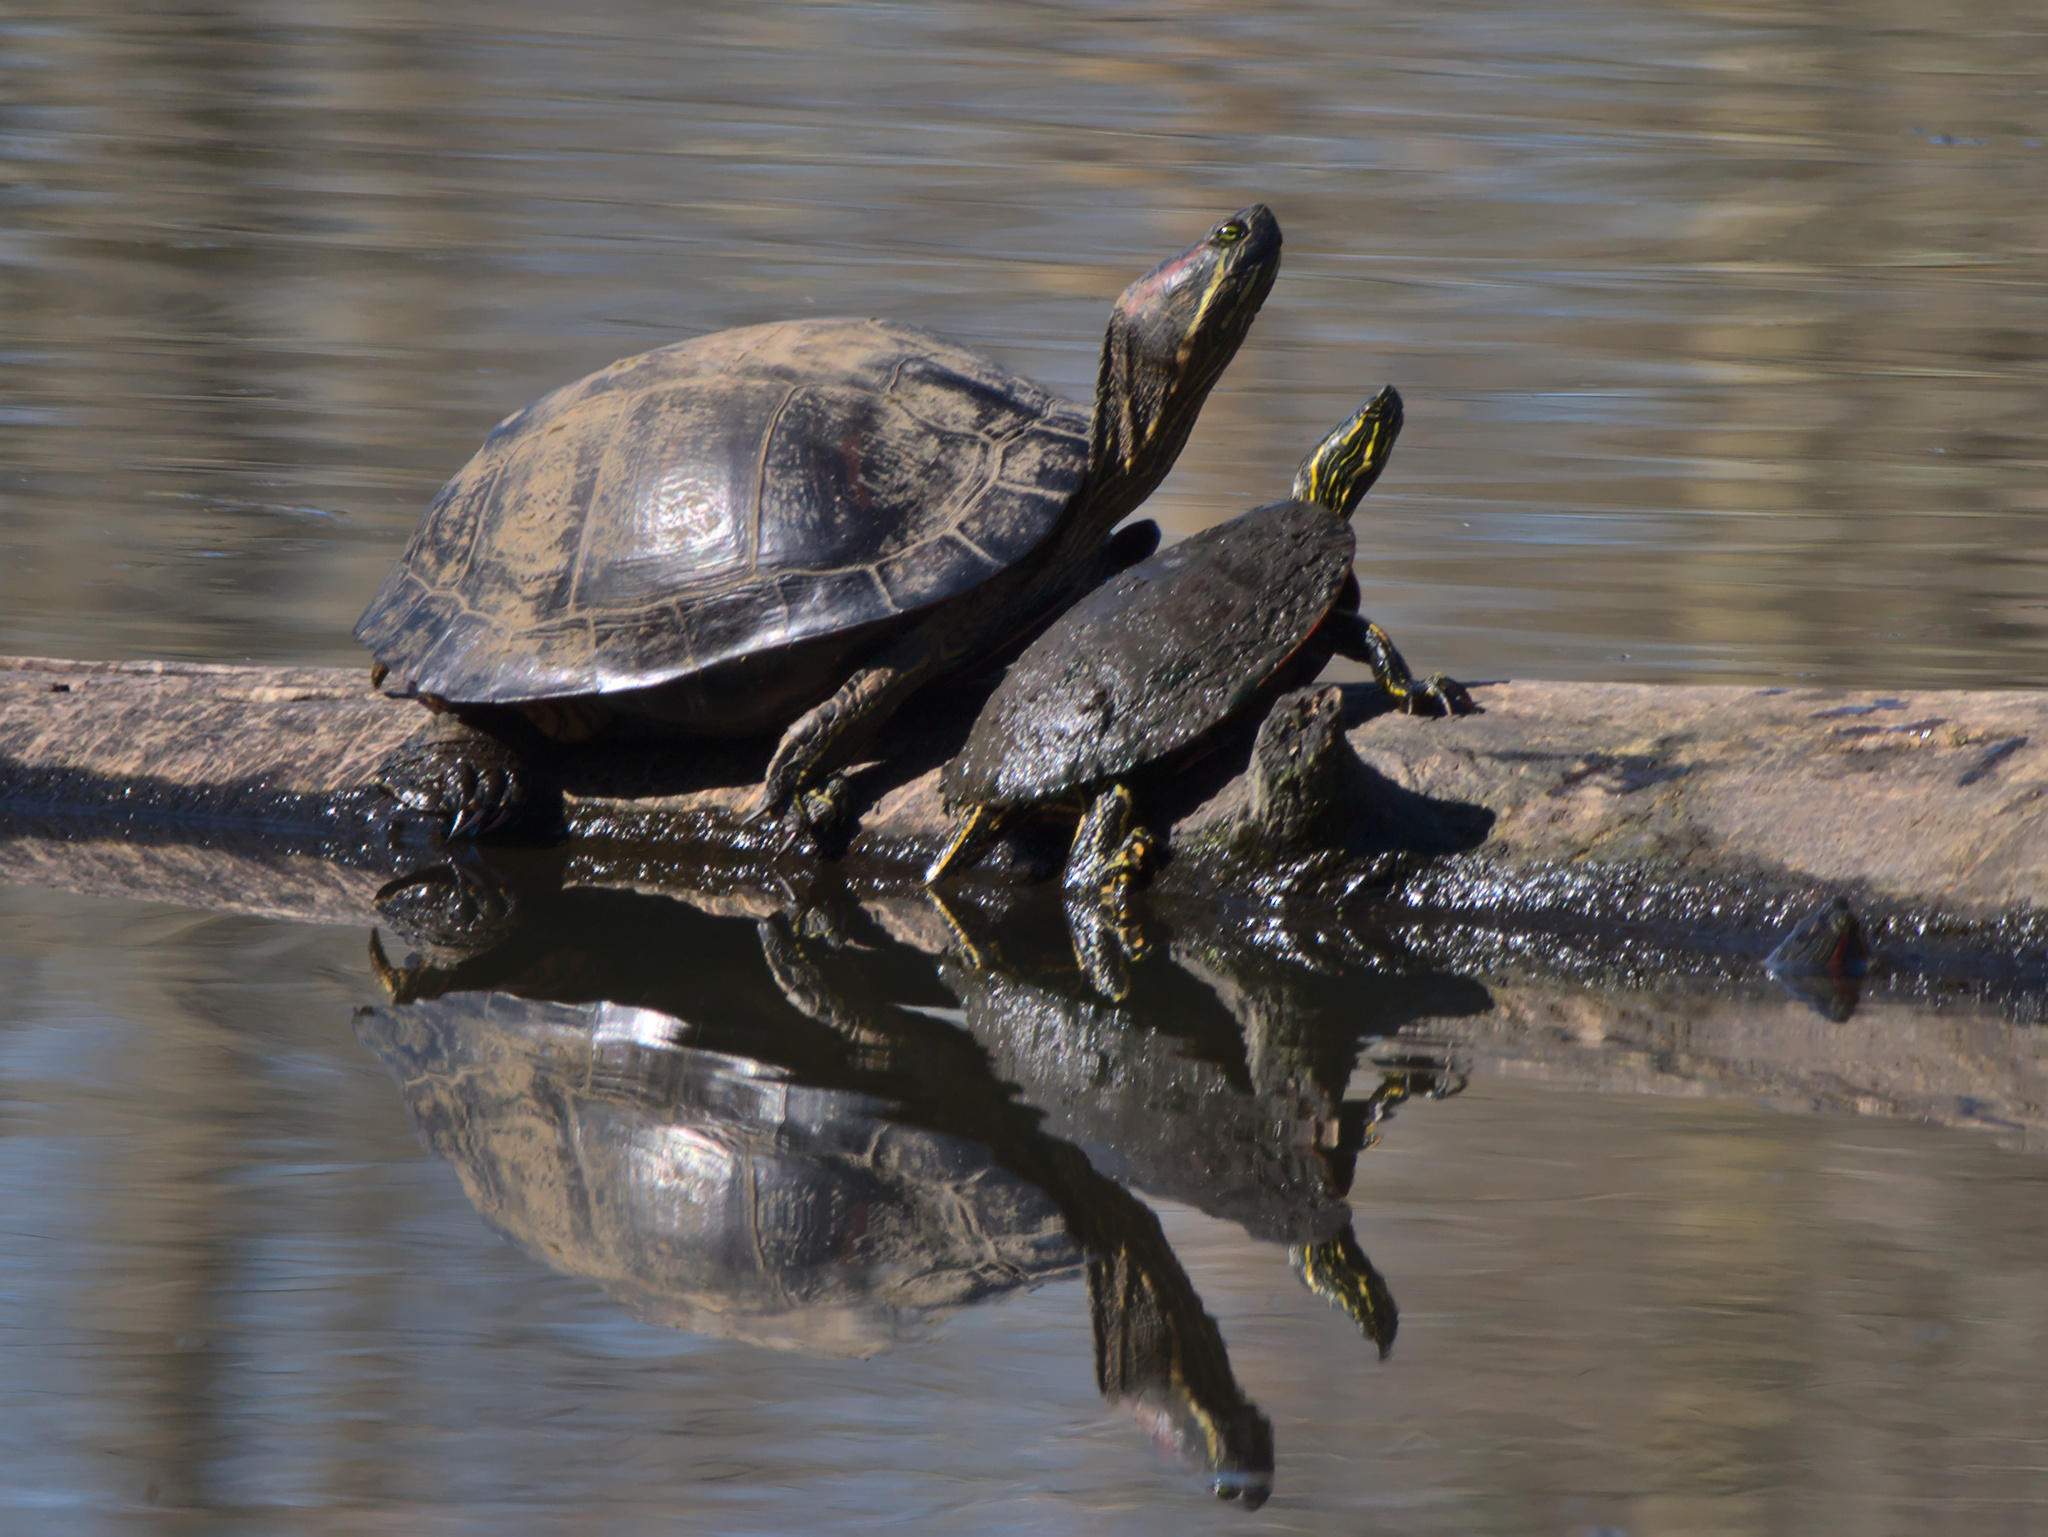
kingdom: Animalia
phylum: Chordata
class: Testudines
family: Emydidae
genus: Chrysemys
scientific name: Chrysemys picta
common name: Painted turtle
